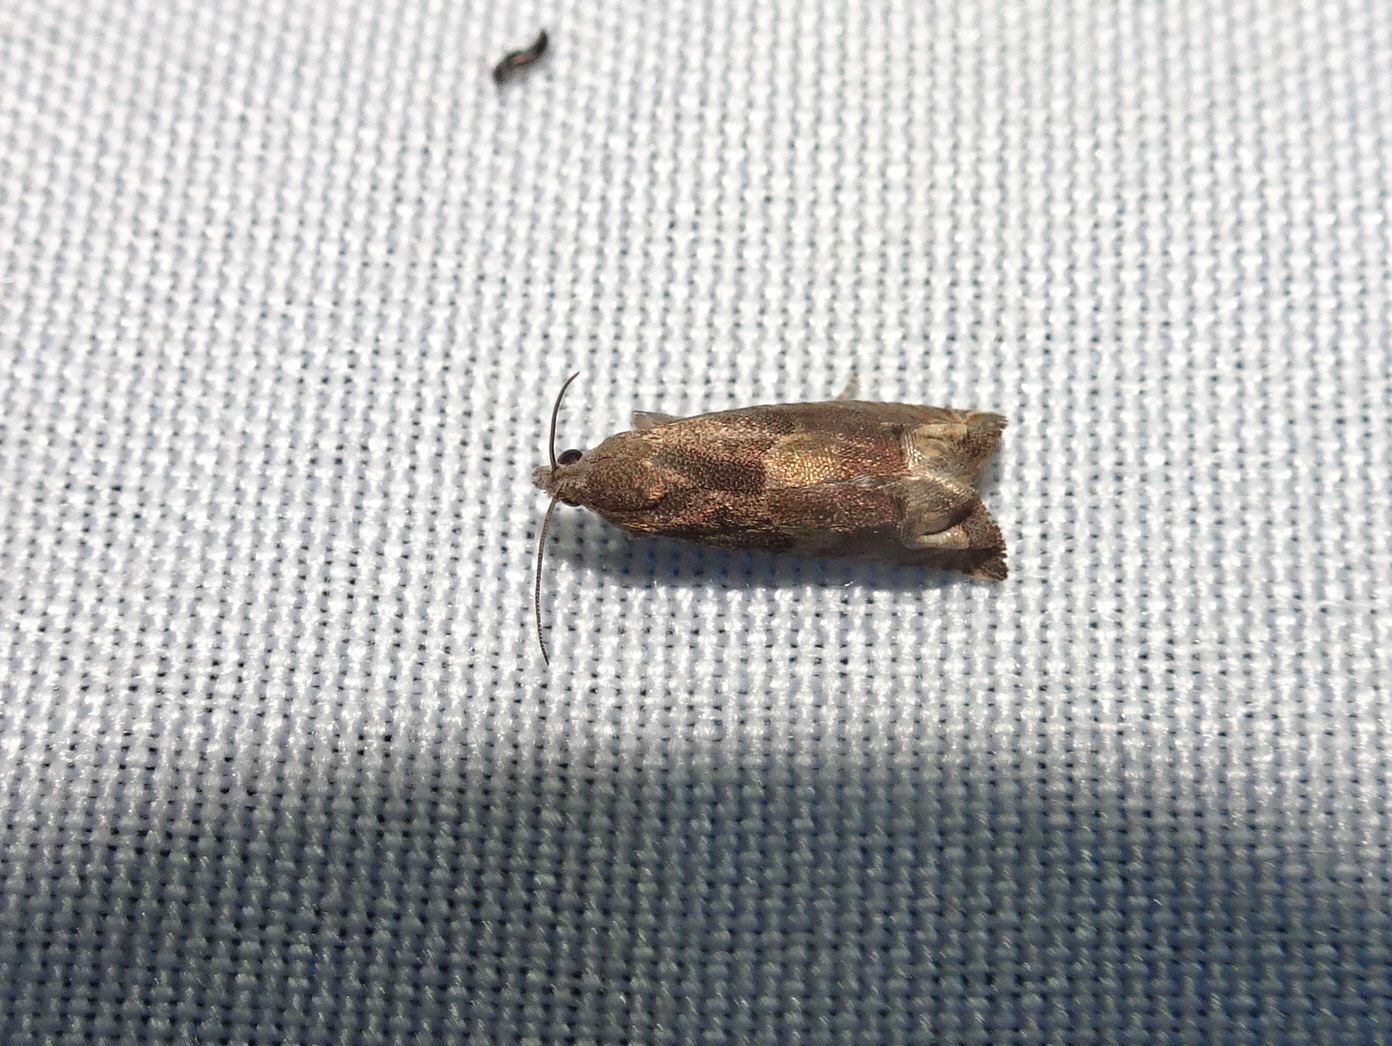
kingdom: Animalia
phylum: Arthropoda
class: Insecta
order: Lepidoptera
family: Tortricidae
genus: Epiblema
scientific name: Epiblema strenuana
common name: Ragweed borer moth
